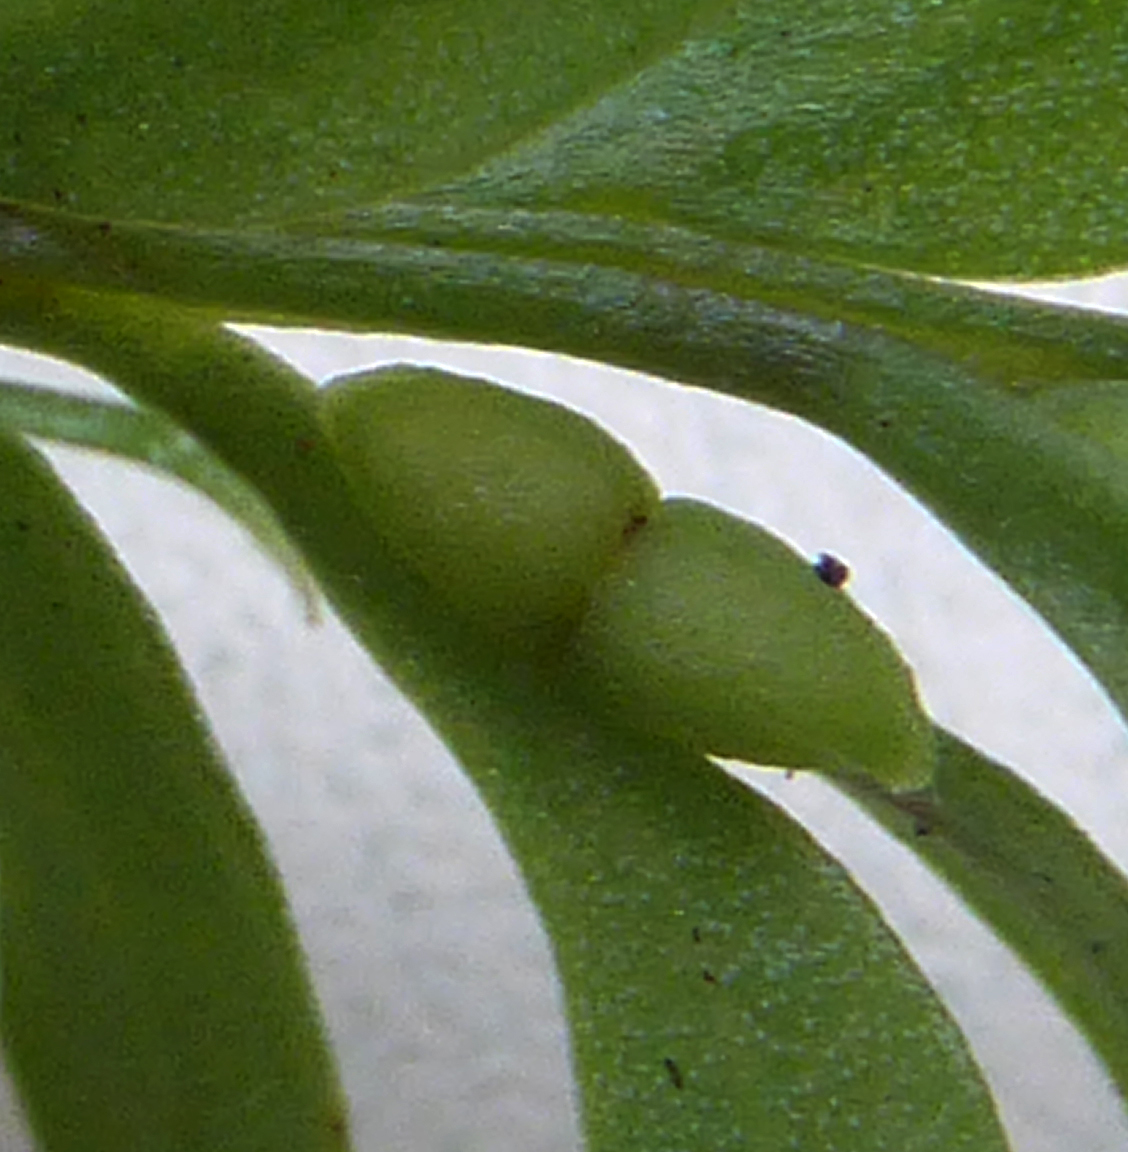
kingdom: Plantae
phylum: Tracheophyta
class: Polypodiopsida
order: Psilotales
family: Psilotaceae
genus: Tmesipteris
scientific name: Tmesipteris tannensis
